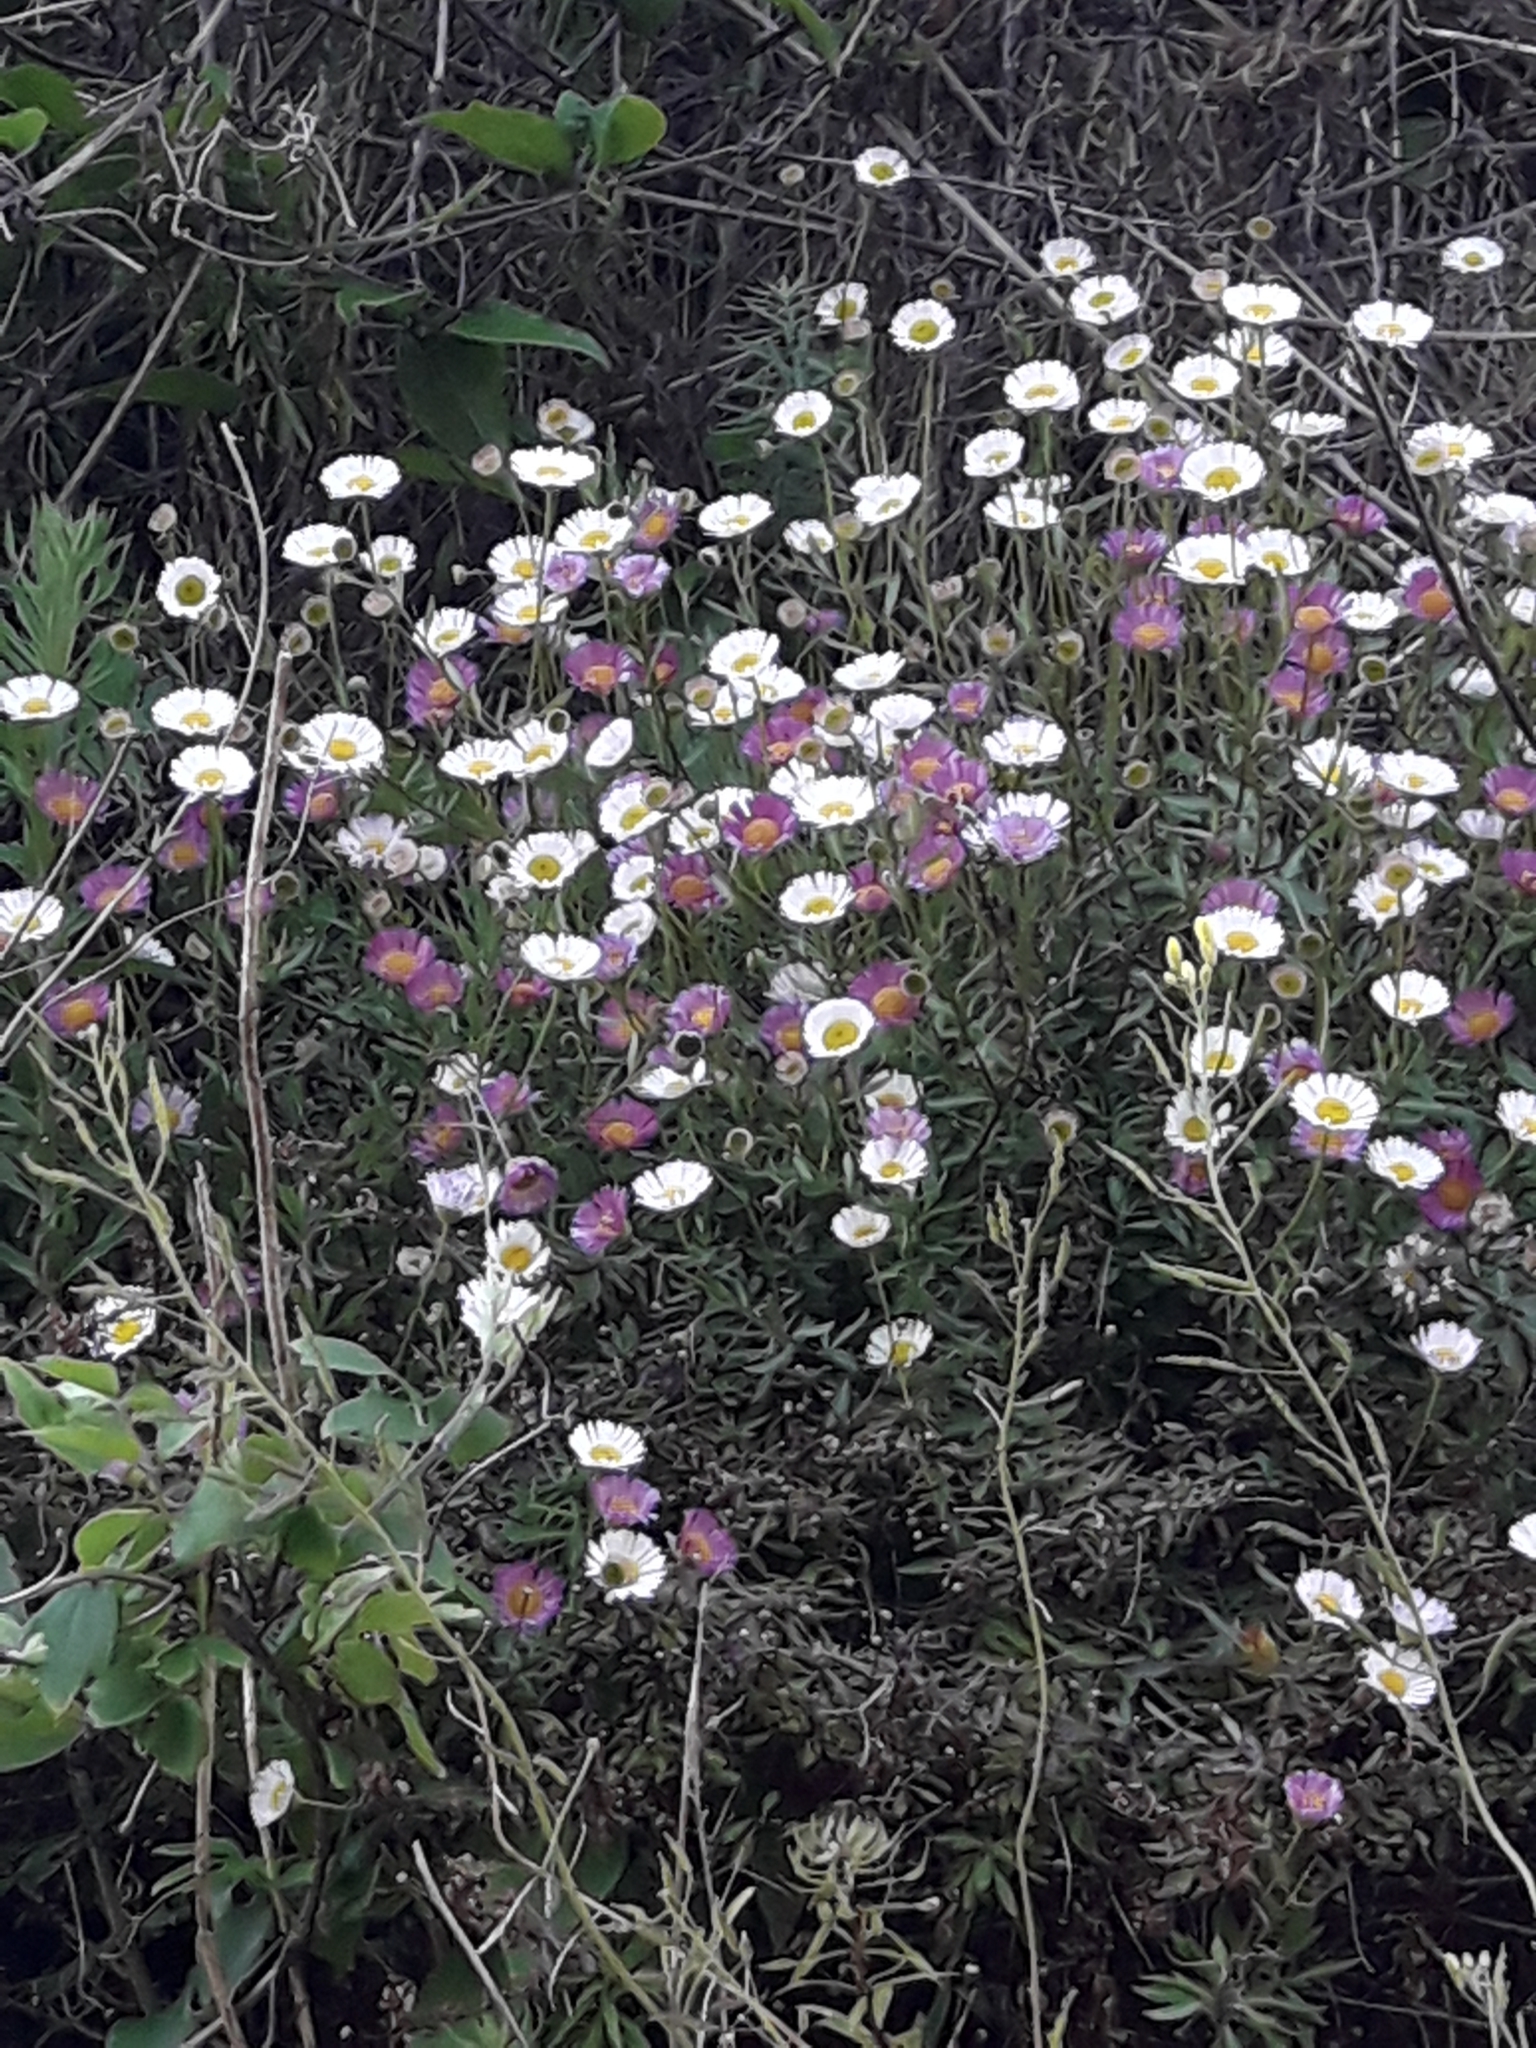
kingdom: Plantae
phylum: Tracheophyta
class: Magnoliopsida
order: Asterales
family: Asteraceae
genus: Erigeron
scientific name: Erigeron karvinskianus
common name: Mexican fleabane
